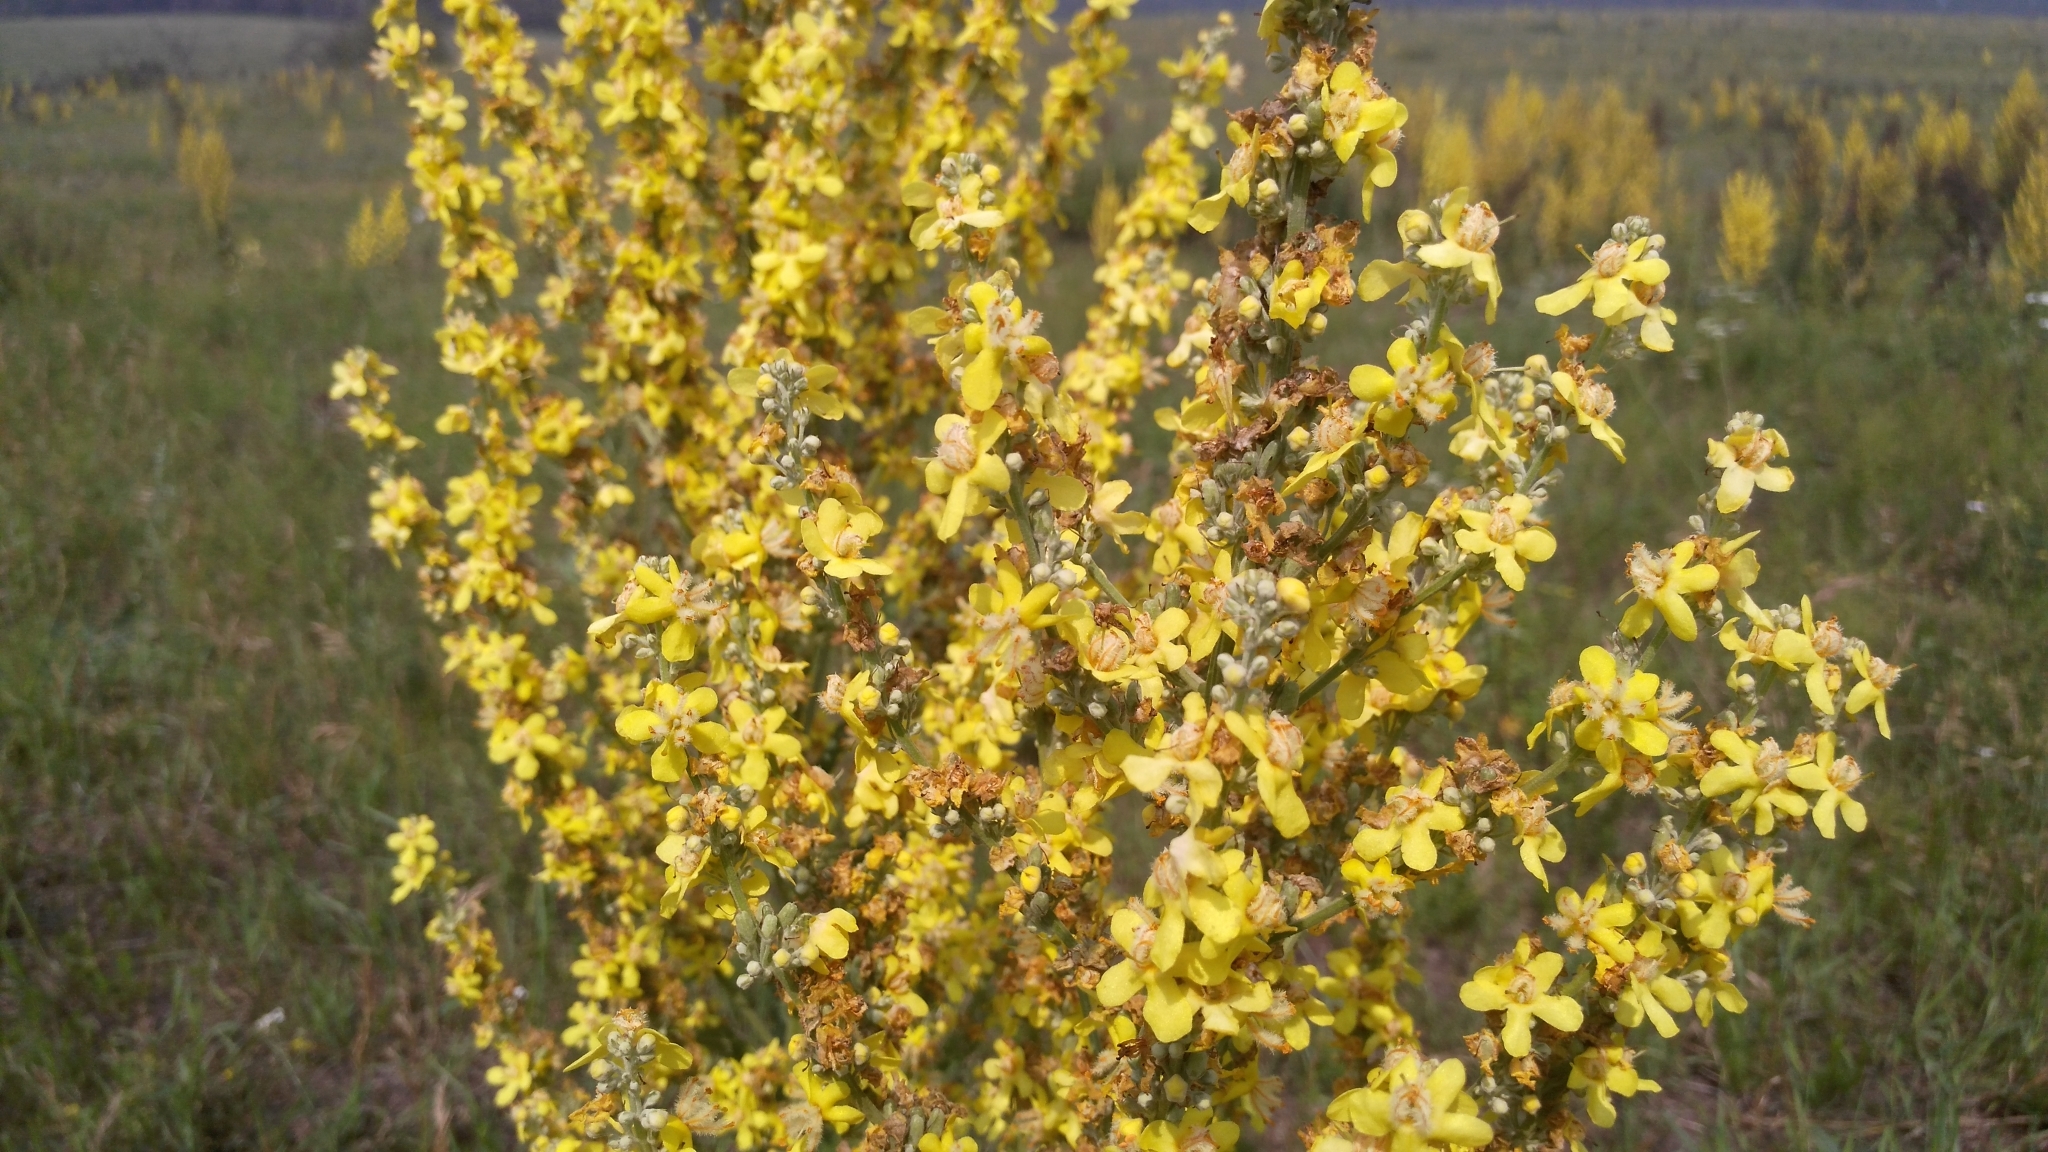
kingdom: Plantae
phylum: Tracheophyta
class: Magnoliopsida
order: Lamiales
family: Scrophulariaceae
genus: Verbascum
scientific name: Verbascum lychnitis
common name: White mullein
